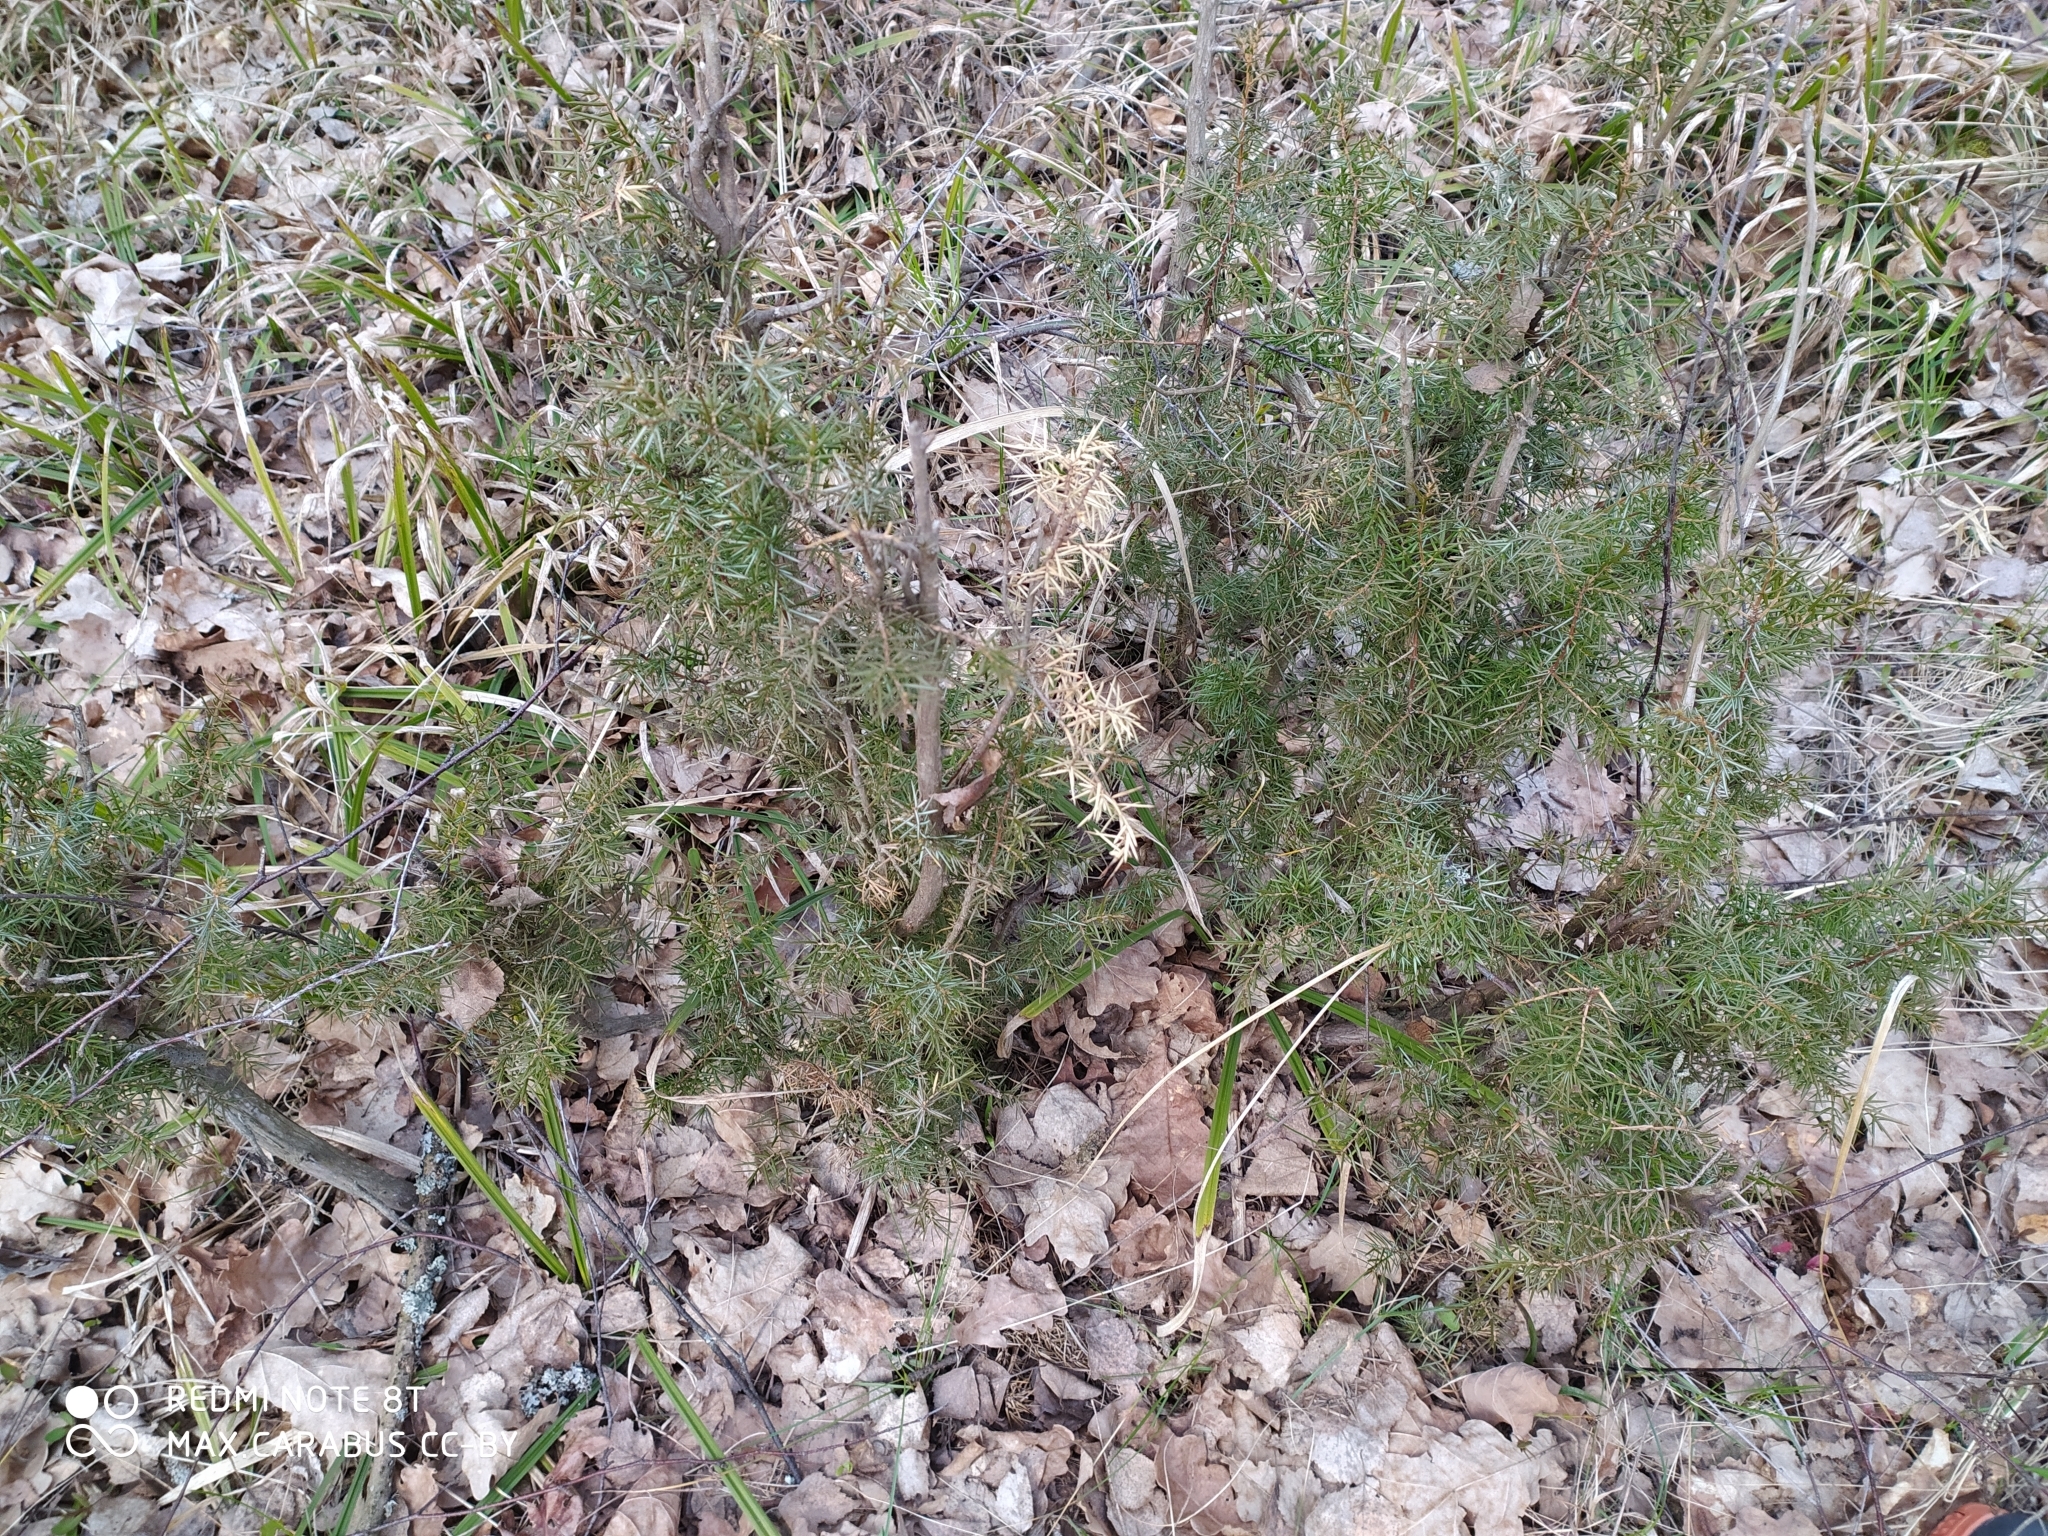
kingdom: Plantae
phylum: Tracheophyta
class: Pinopsida
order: Pinales
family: Cupressaceae
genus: Juniperus
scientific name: Juniperus communis
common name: Common juniper
